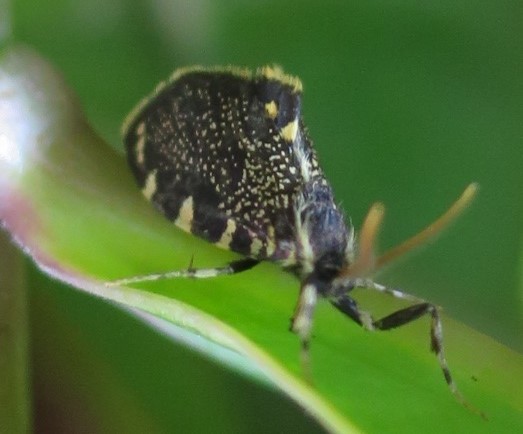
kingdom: Animalia
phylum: Arthropoda
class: Insecta
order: Lepidoptera
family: Psychidae
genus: Cebysa
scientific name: Cebysa leucotelus
